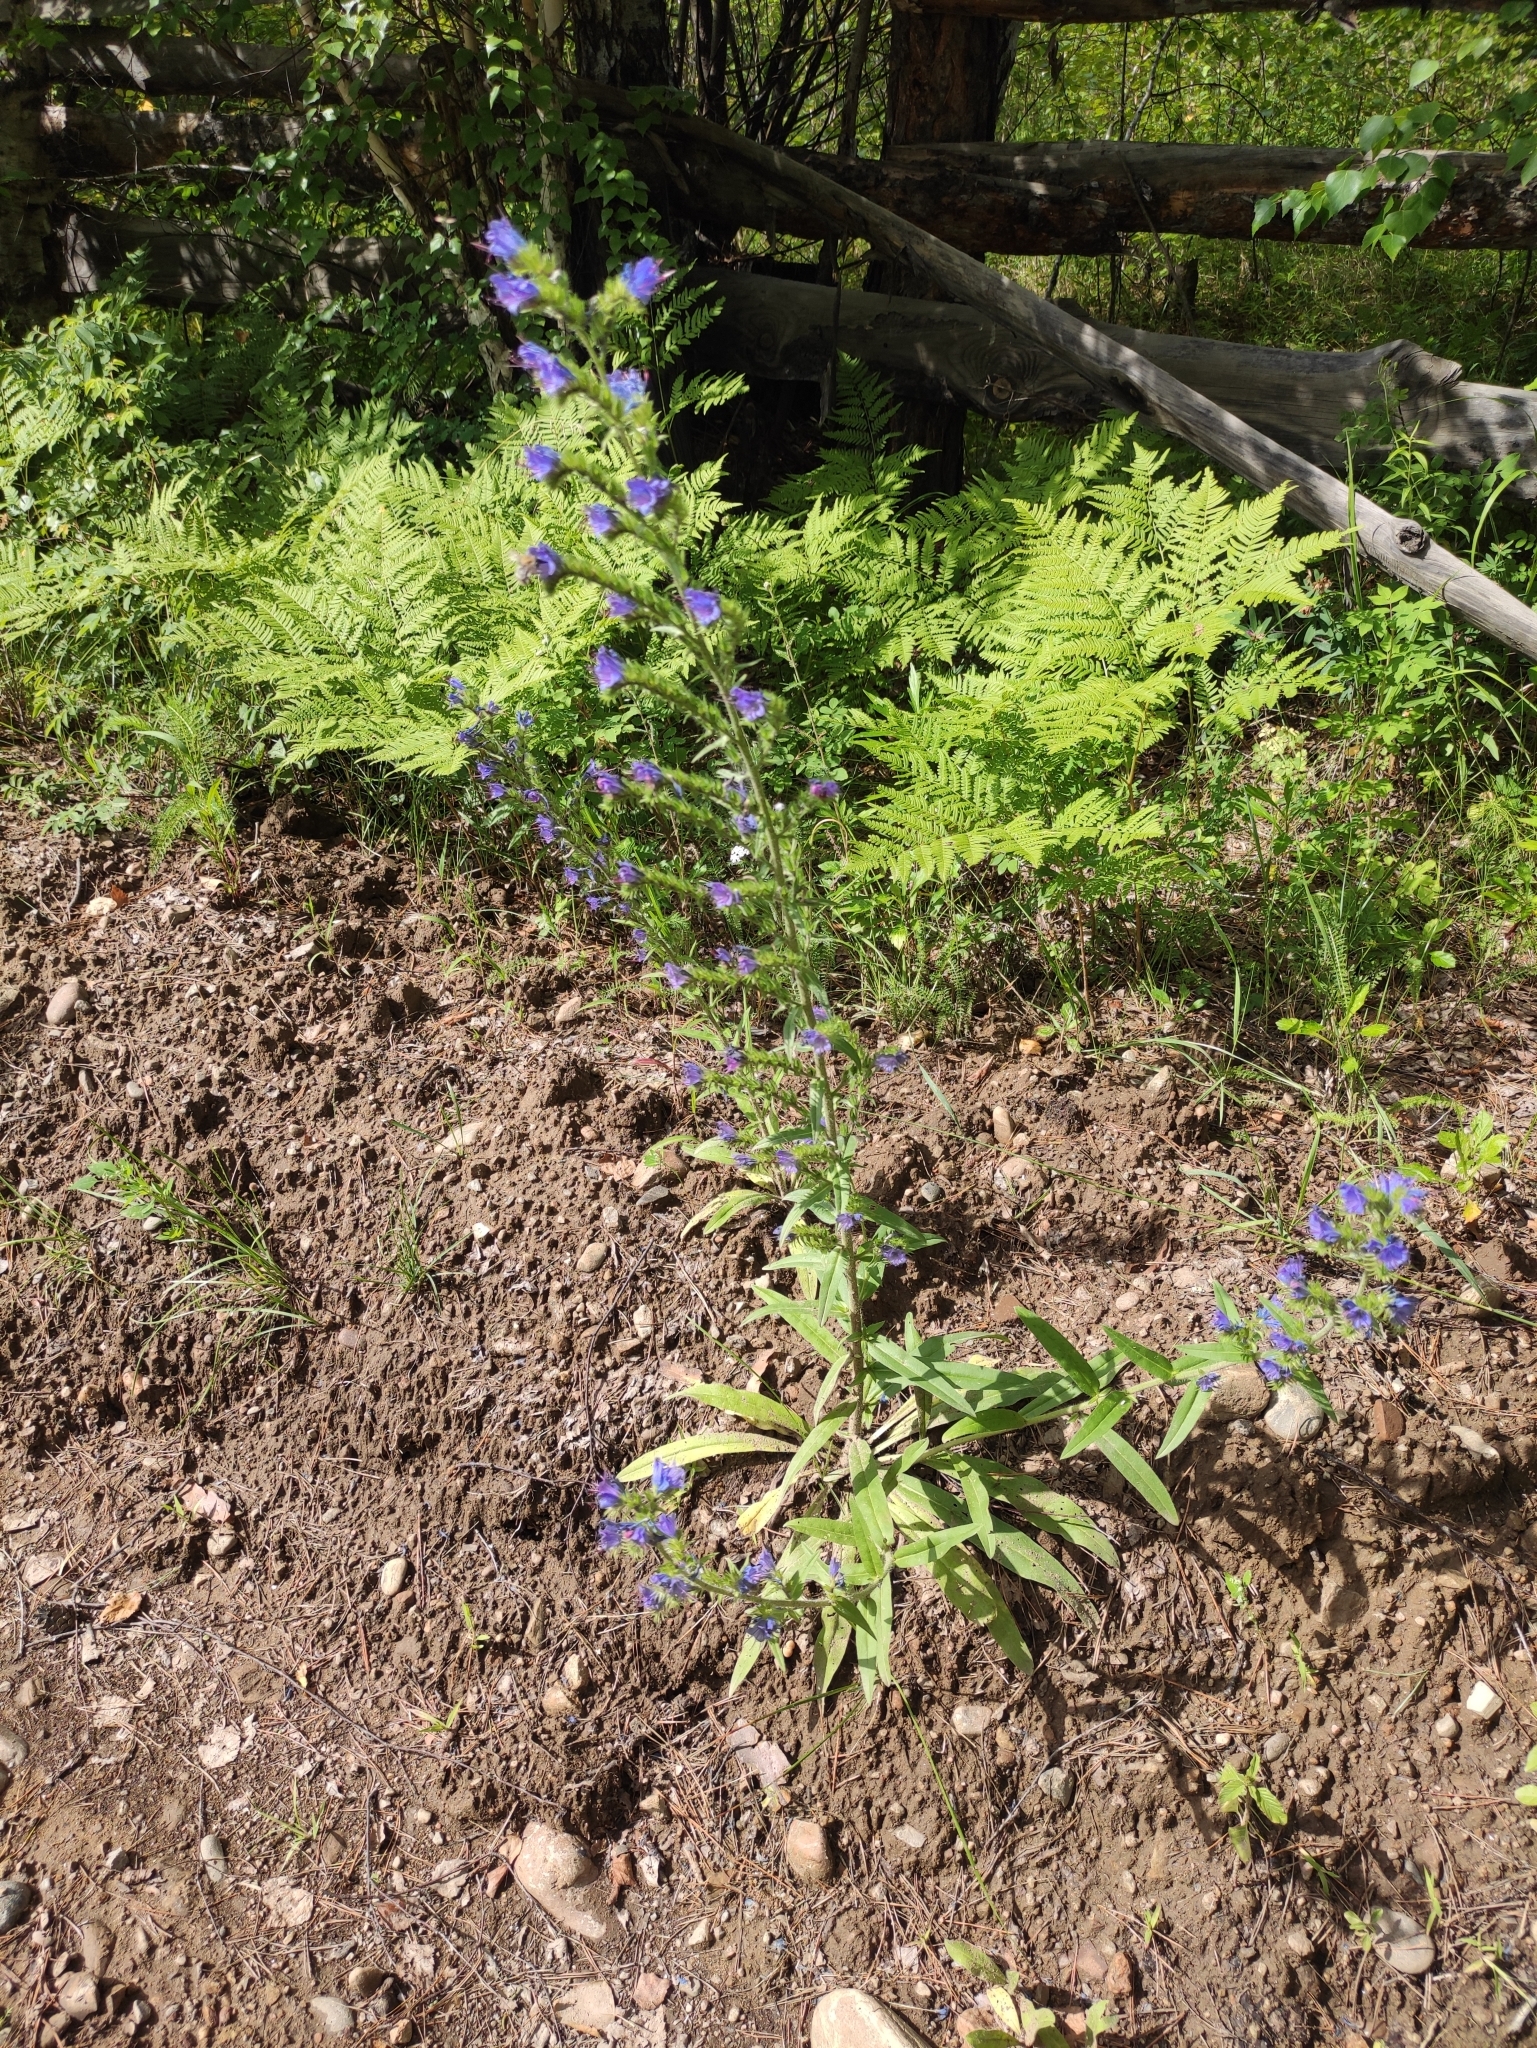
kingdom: Plantae
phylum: Tracheophyta
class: Magnoliopsida
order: Boraginales
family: Boraginaceae
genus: Echium
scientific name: Echium vulgare
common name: Common viper's bugloss
